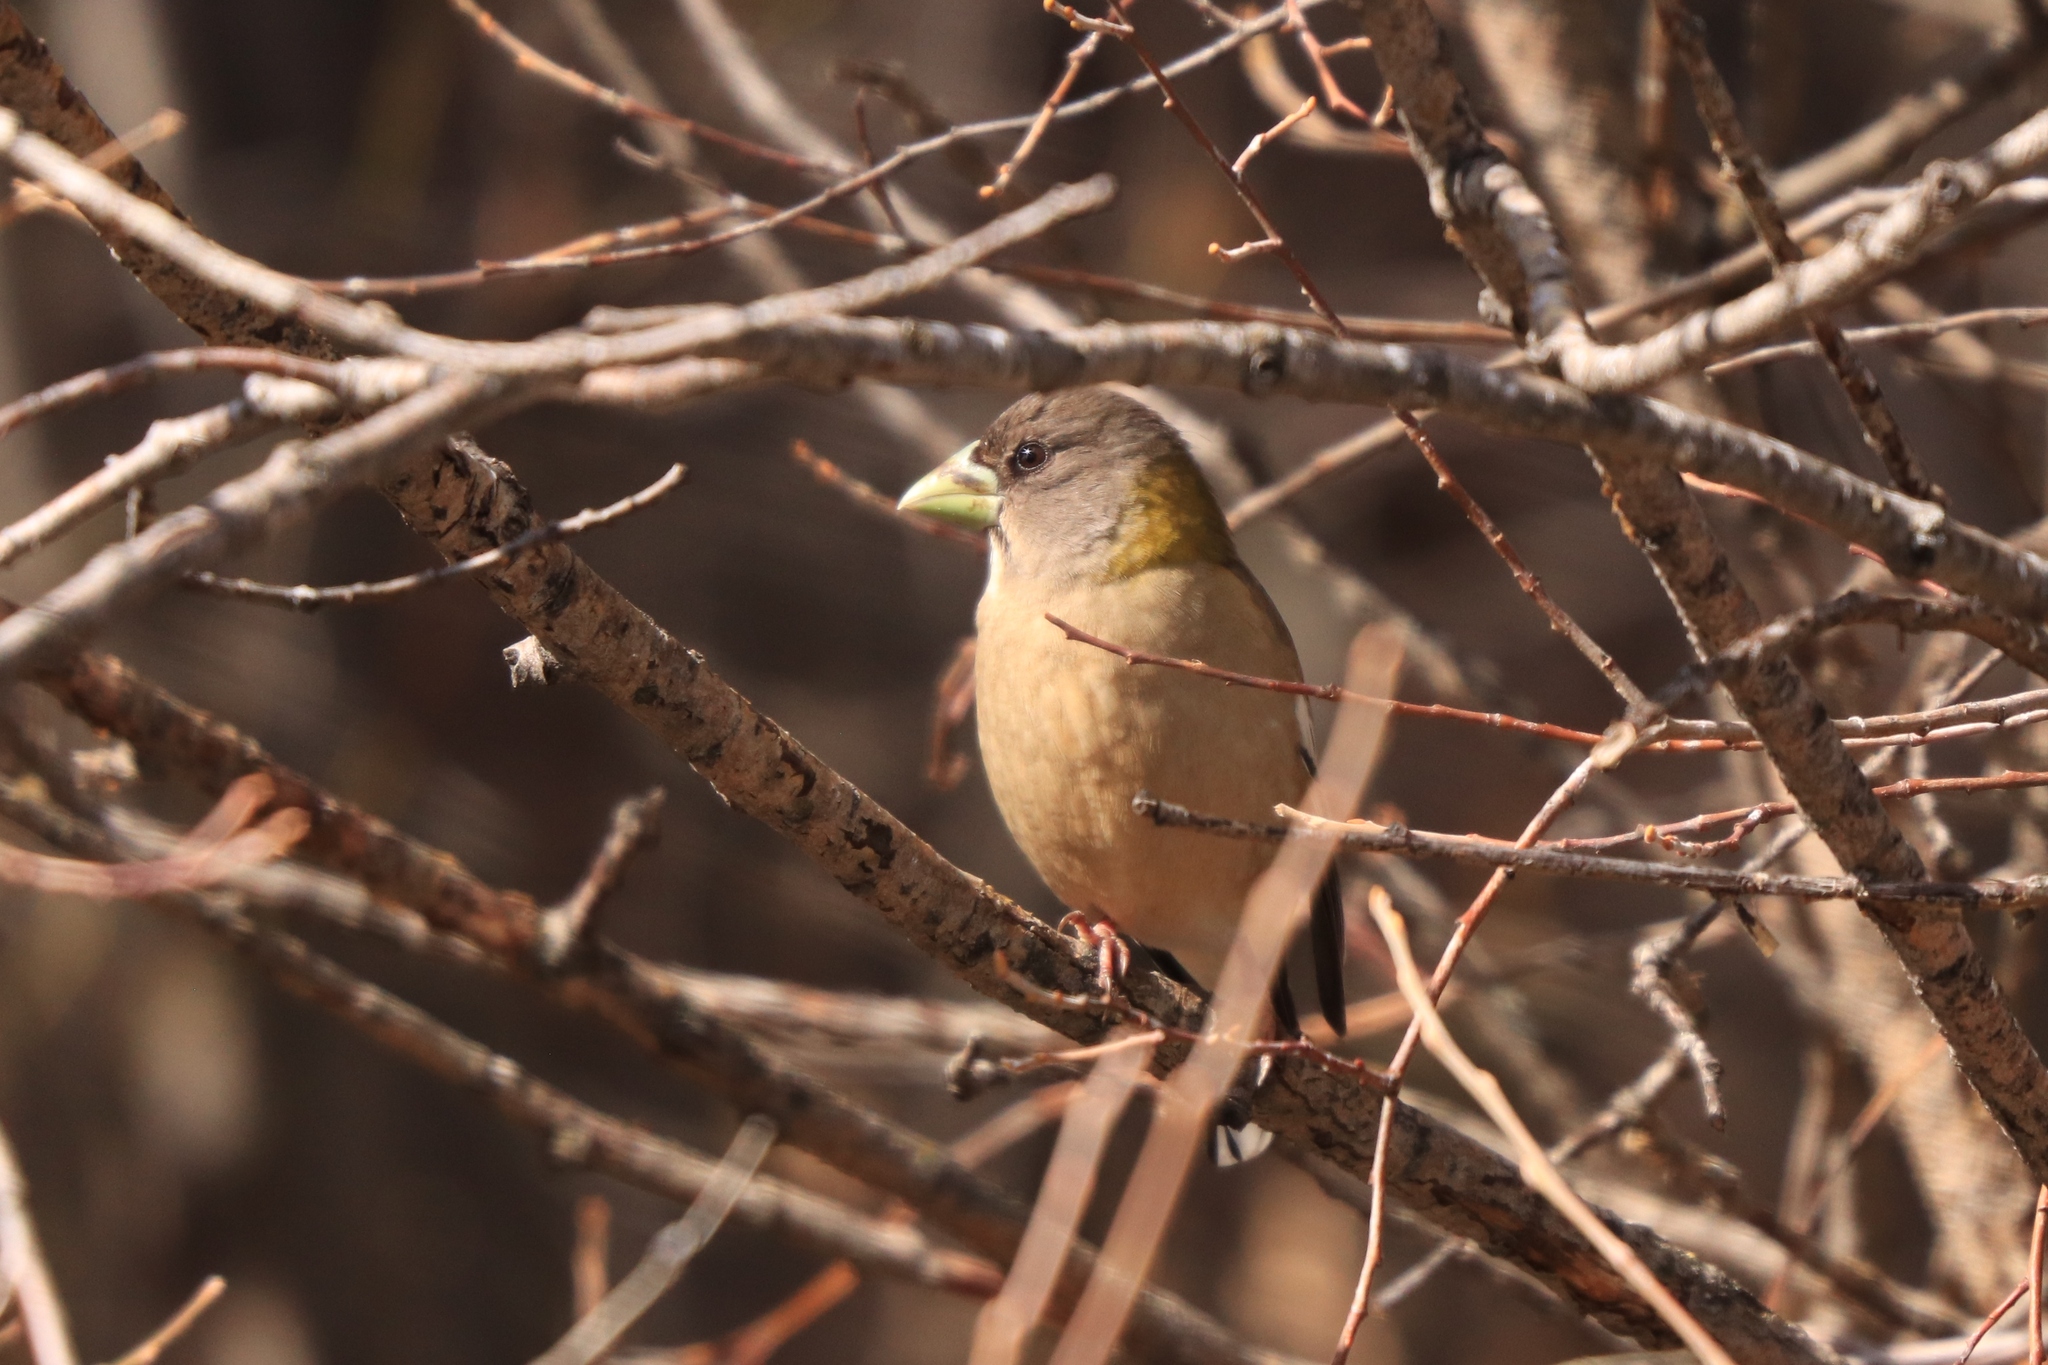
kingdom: Animalia
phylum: Chordata
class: Aves
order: Passeriformes
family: Fringillidae
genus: Hesperiphona
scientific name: Hesperiphona vespertina
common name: Evening grosbeak
